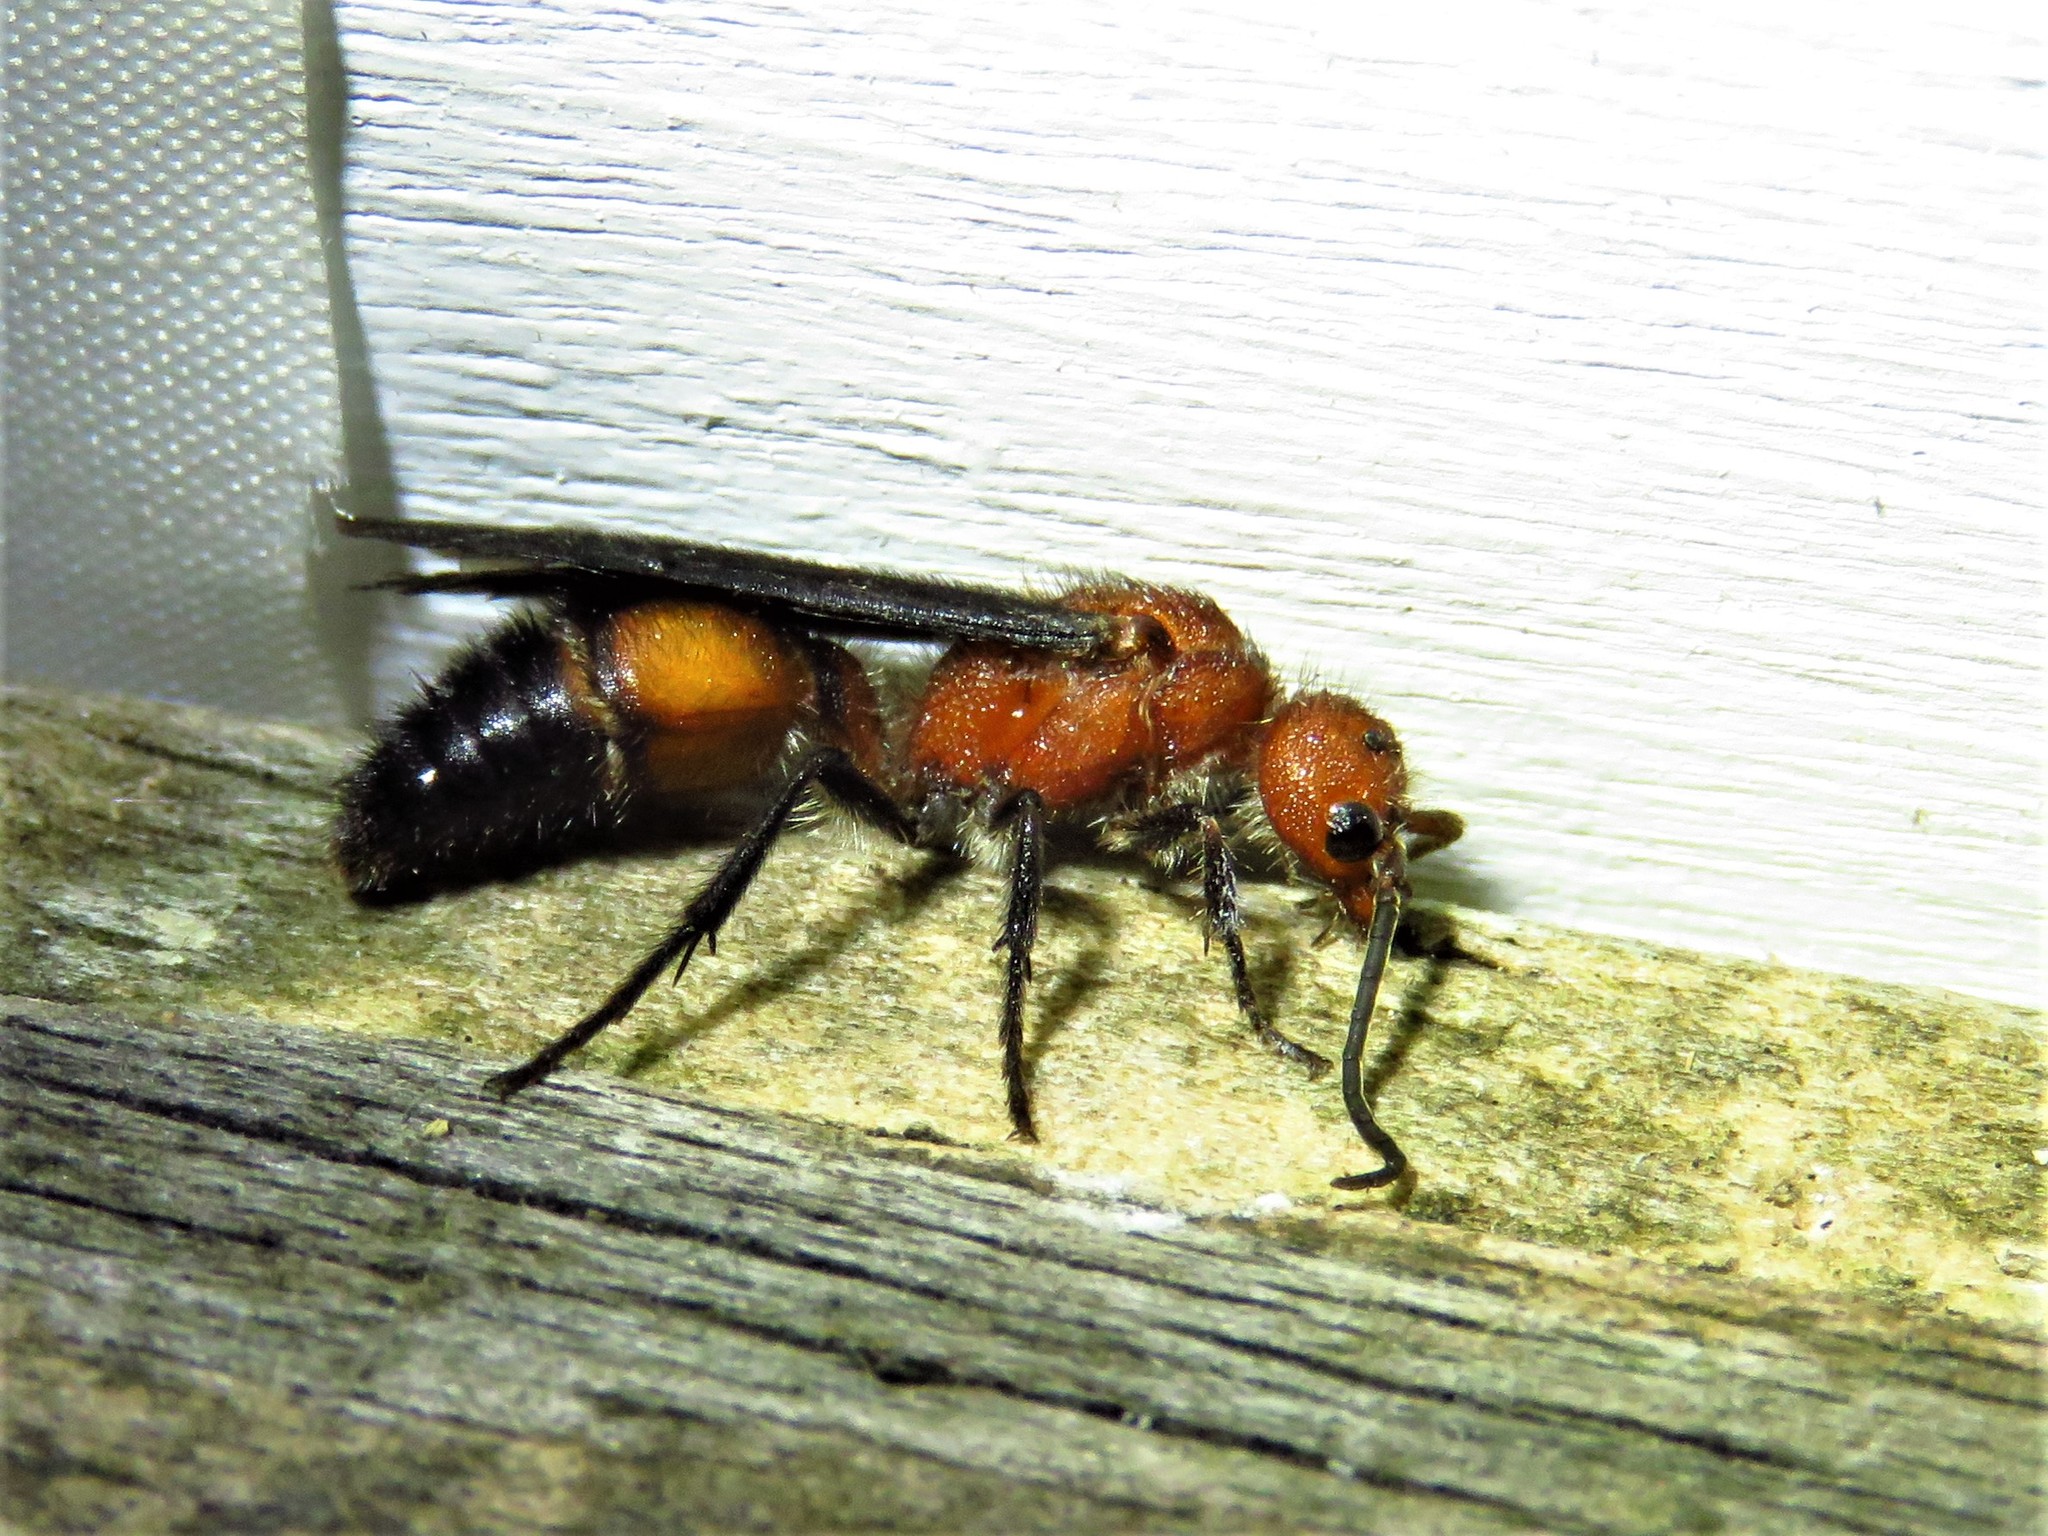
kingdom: Animalia
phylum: Arthropoda
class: Insecta
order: Hymenoptera
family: Mutillidae
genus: Sphaeropthalma
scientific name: Sphaeropthalma
